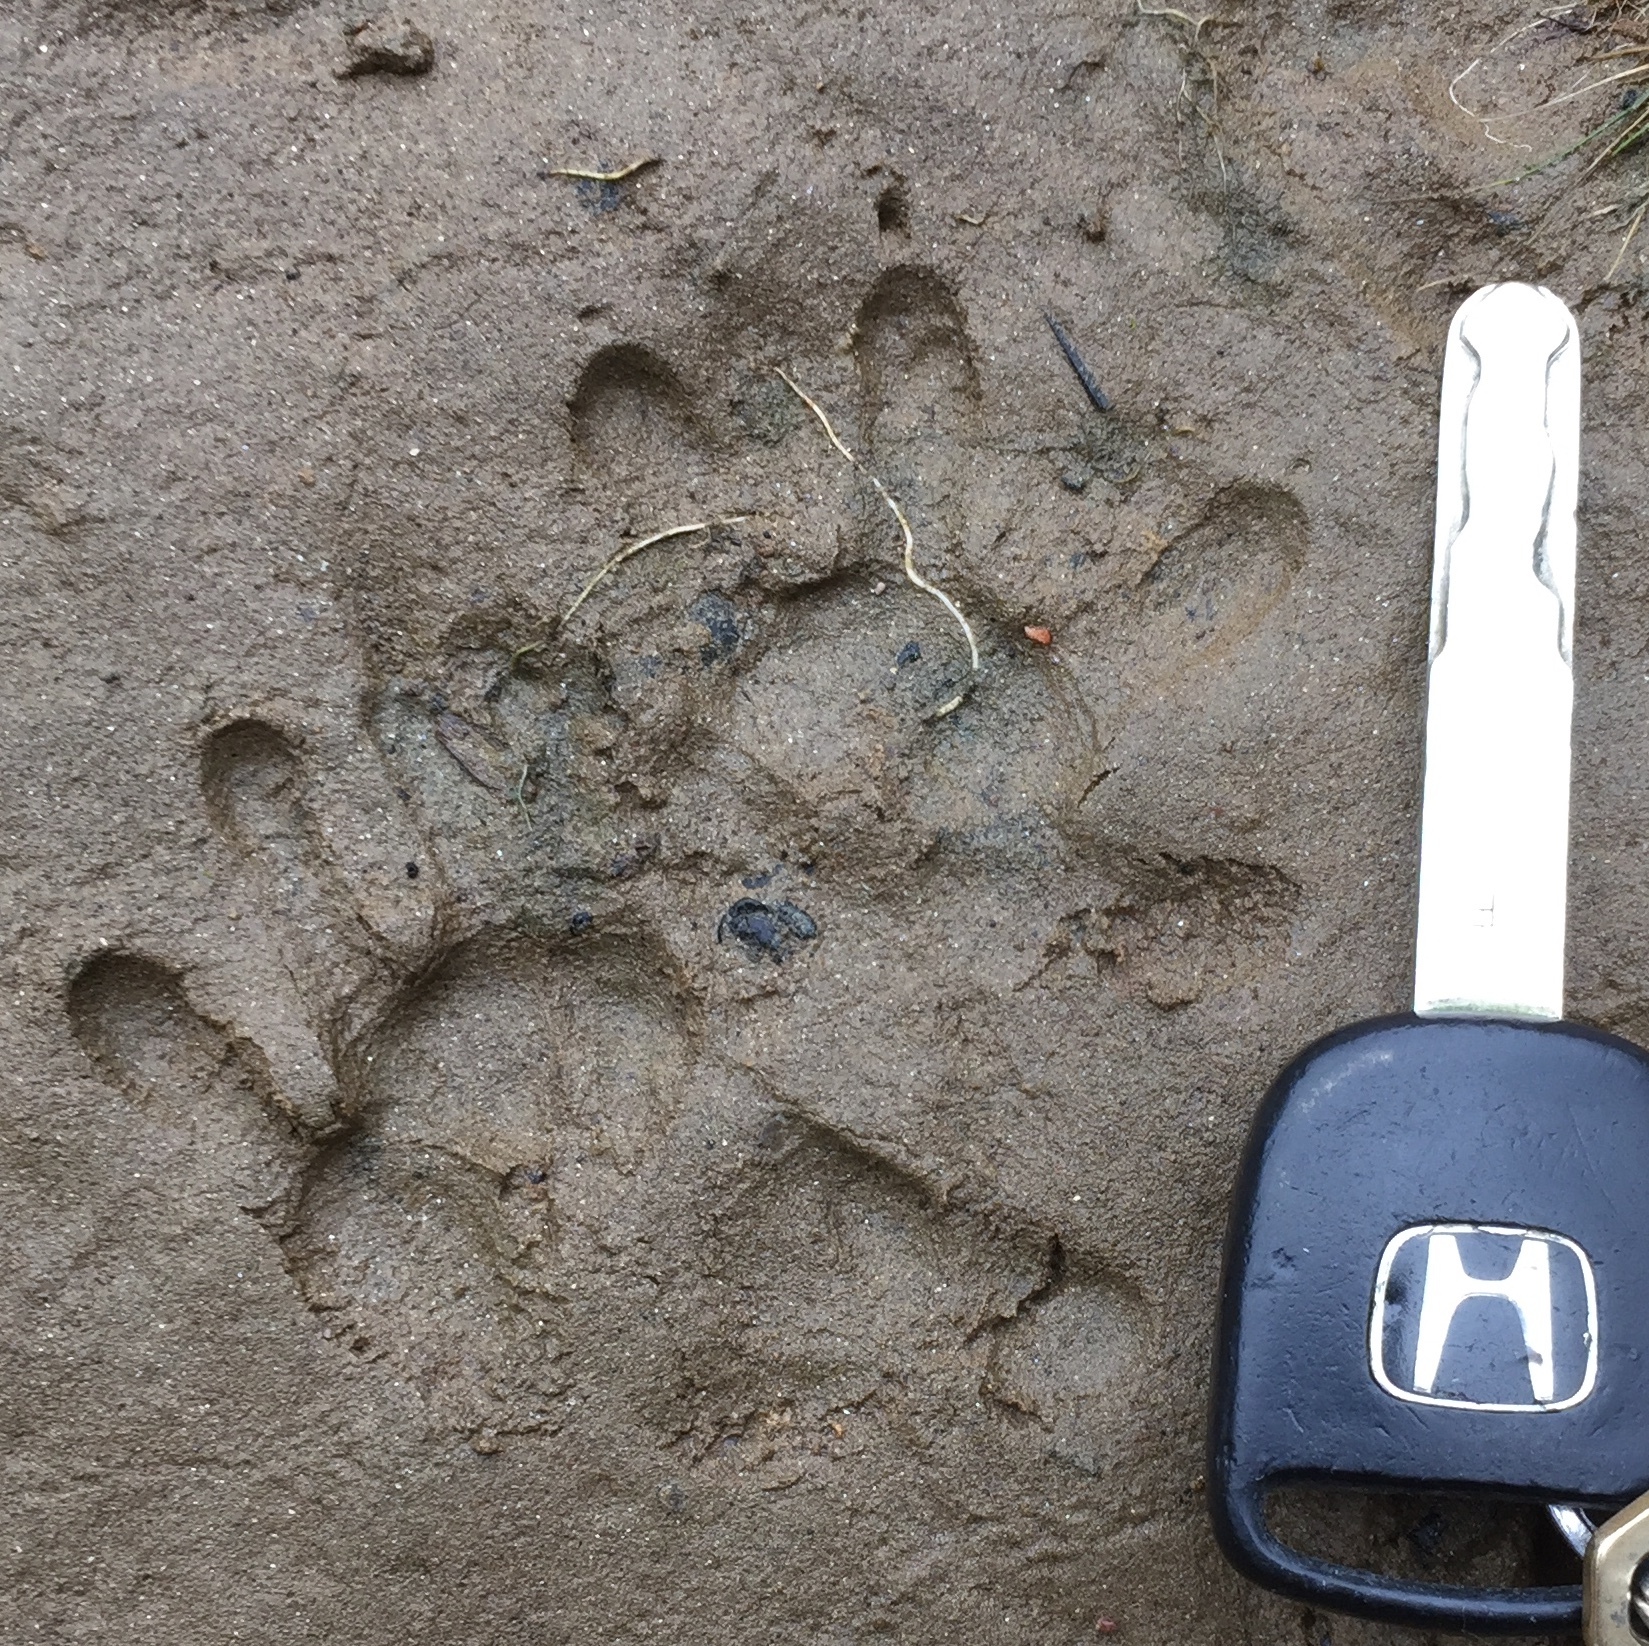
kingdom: Animalia
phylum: Chordata
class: Mammalia
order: Didelphimorphia
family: Didelphidae
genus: Didelphis
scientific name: Didelphis virginiana
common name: Virginia opossum
